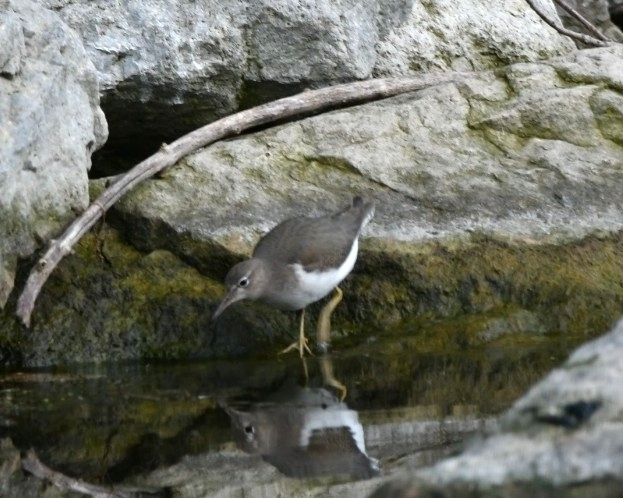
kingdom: Animalia
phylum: Chordata
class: Aves
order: Charadriiformes
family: Scolopacidae
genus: Actitis
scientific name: Actitis macularius
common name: Spotted sandpiper
